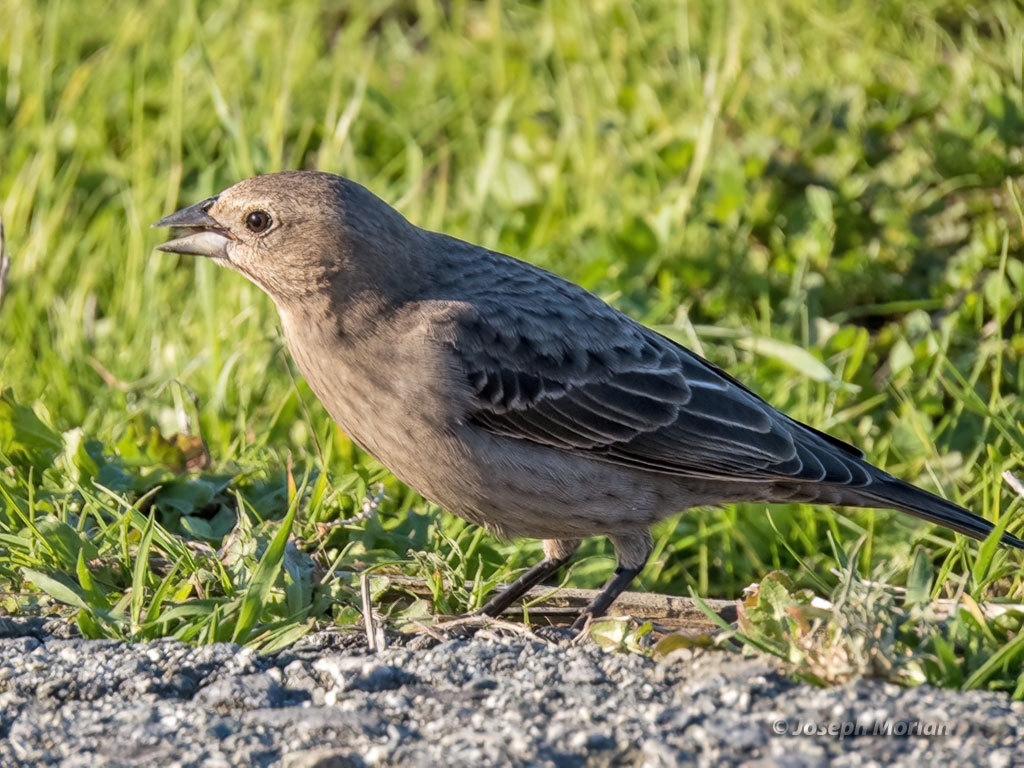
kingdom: Animalia
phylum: Chordata
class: Aves
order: Passeriformes
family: Icteridae
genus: Molothrus
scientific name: Molothrus ater
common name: Brown-headed cowbird
